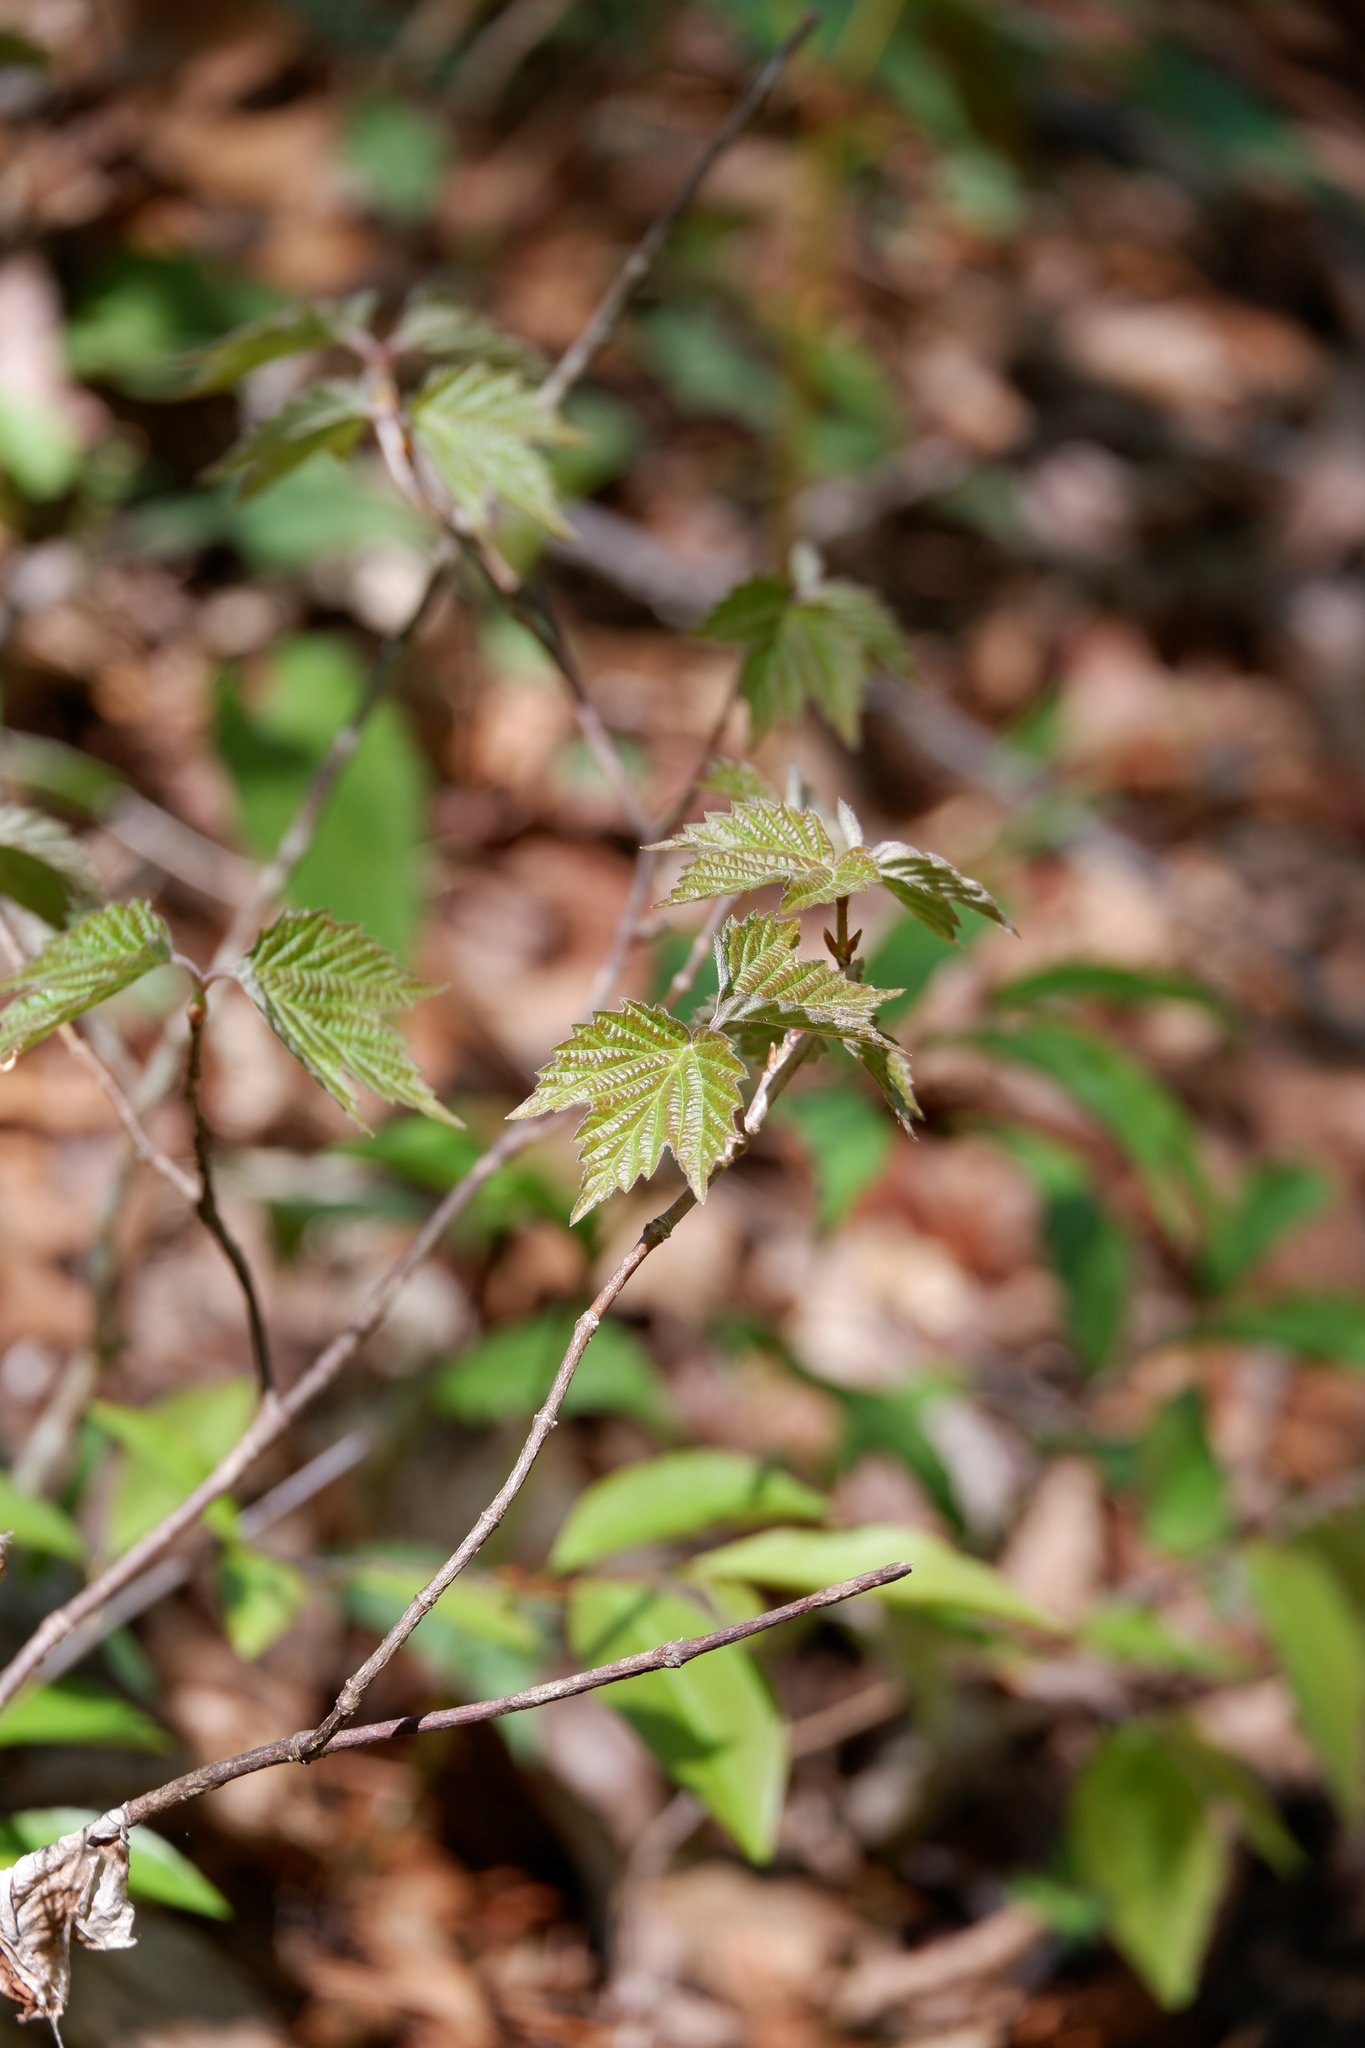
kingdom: Plantae
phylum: Tracheophyta
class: Magnoliopsida
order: Dipsacales
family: Viburnaceae
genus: Viburnum
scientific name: Viburnum acerifolium
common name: Dockmackie
